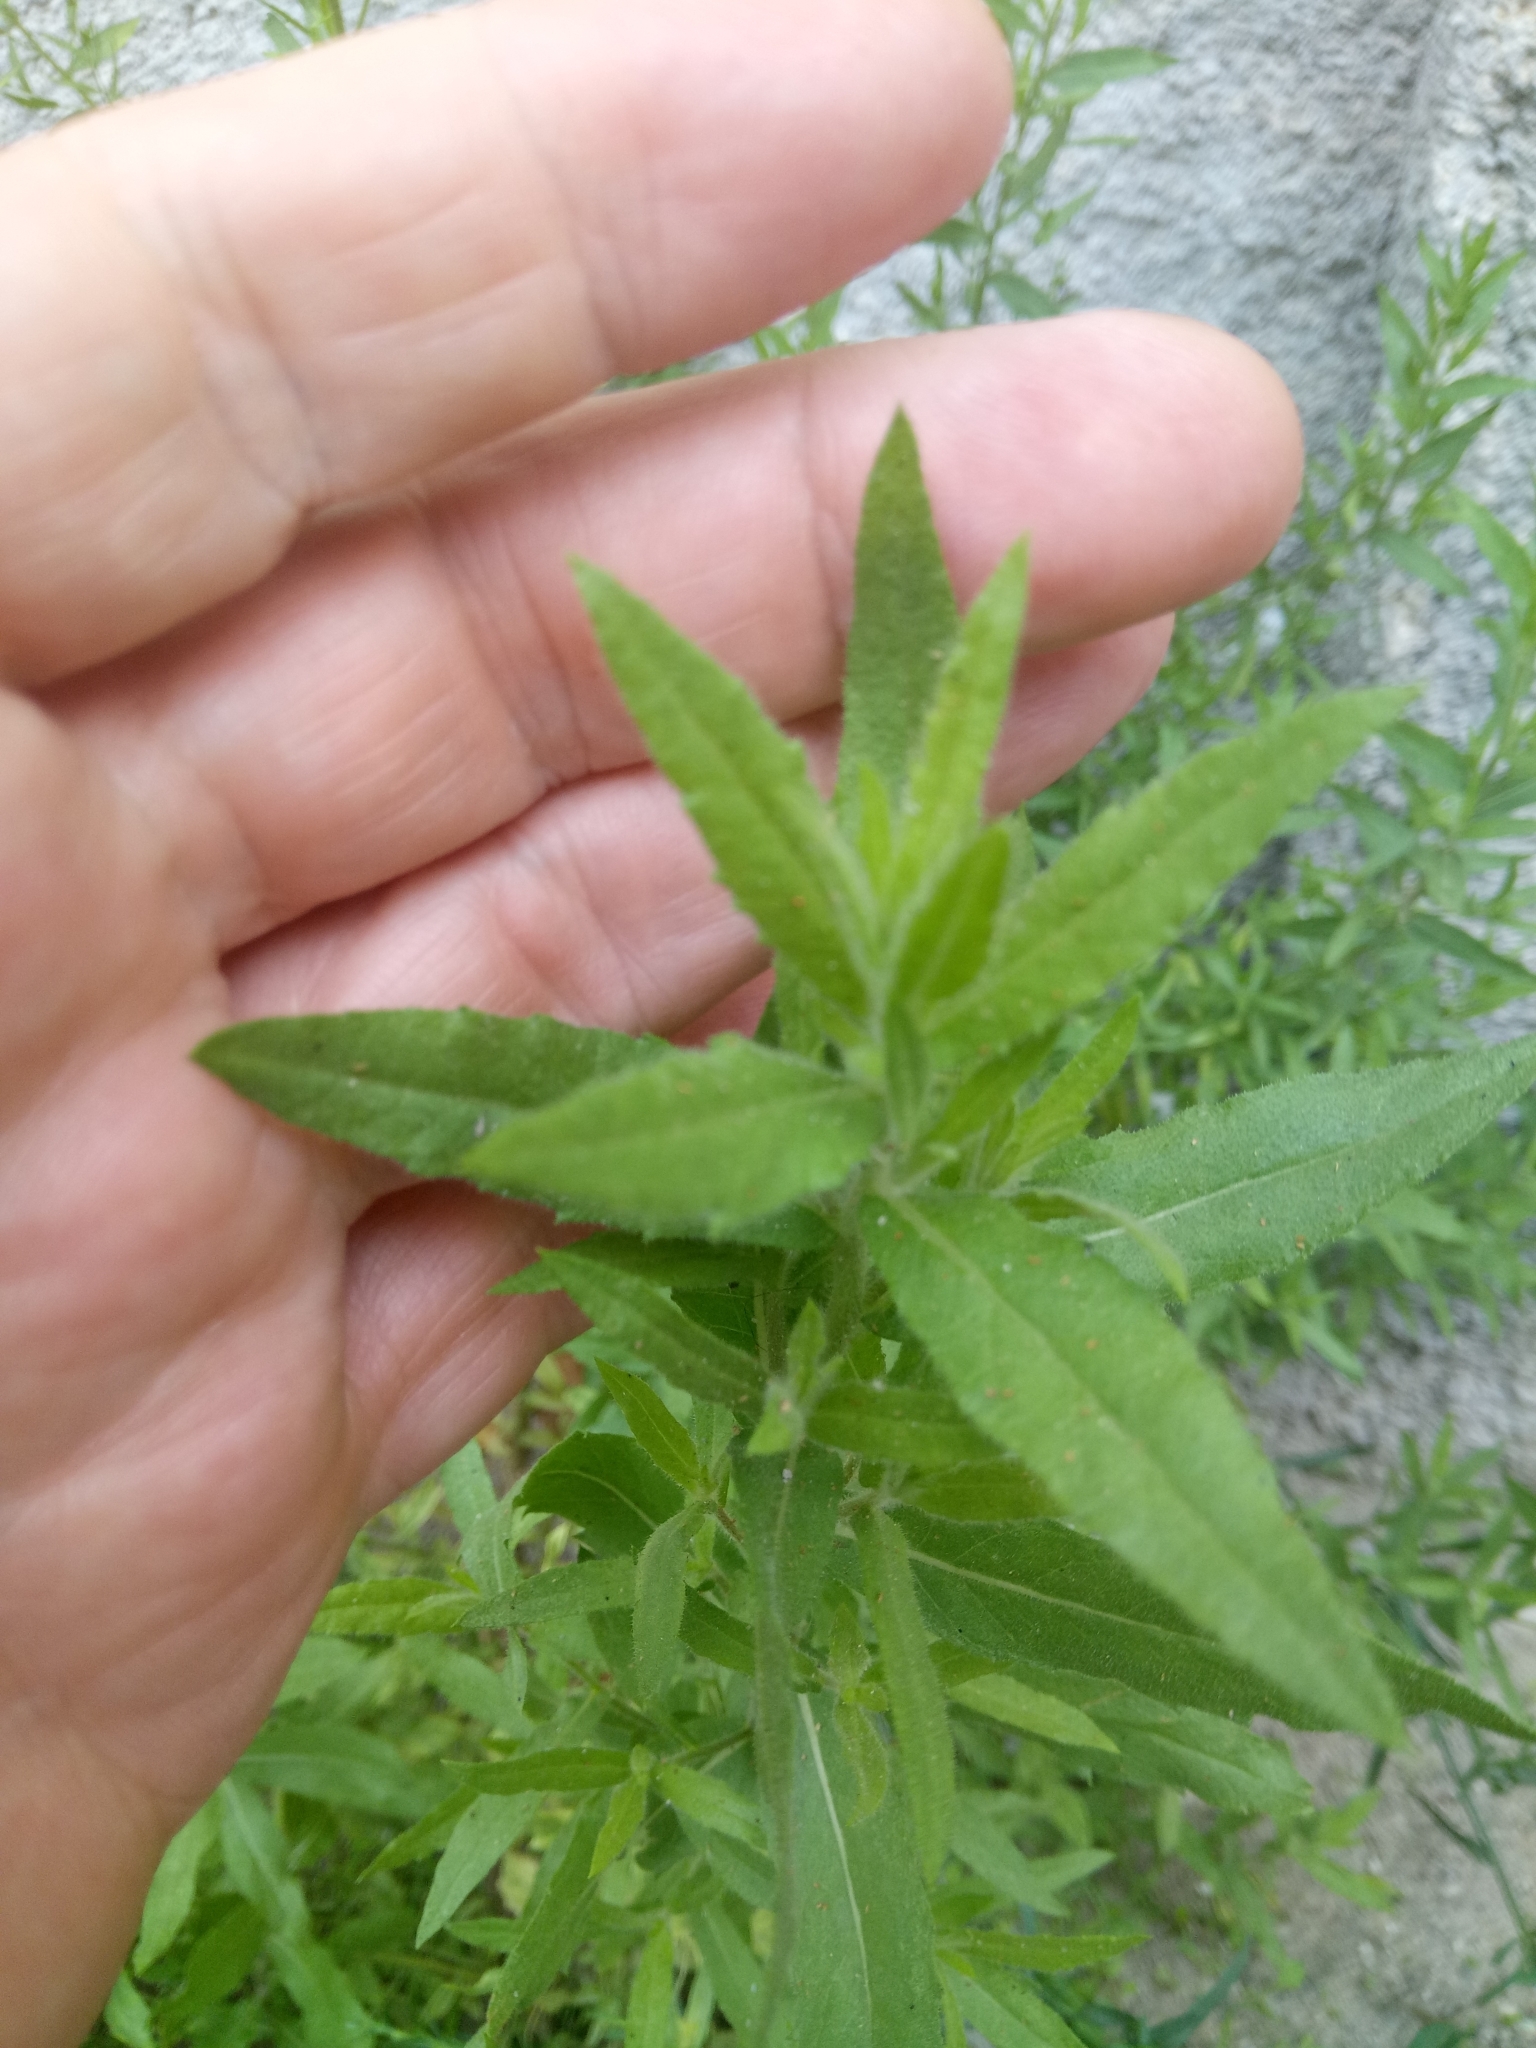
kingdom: Plantae
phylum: Tracheophyta
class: Magnoliopsida
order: Asterales
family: Asteraceae
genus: Dittrichia
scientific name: Dittrichia viscosa
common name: Woody fleabane
